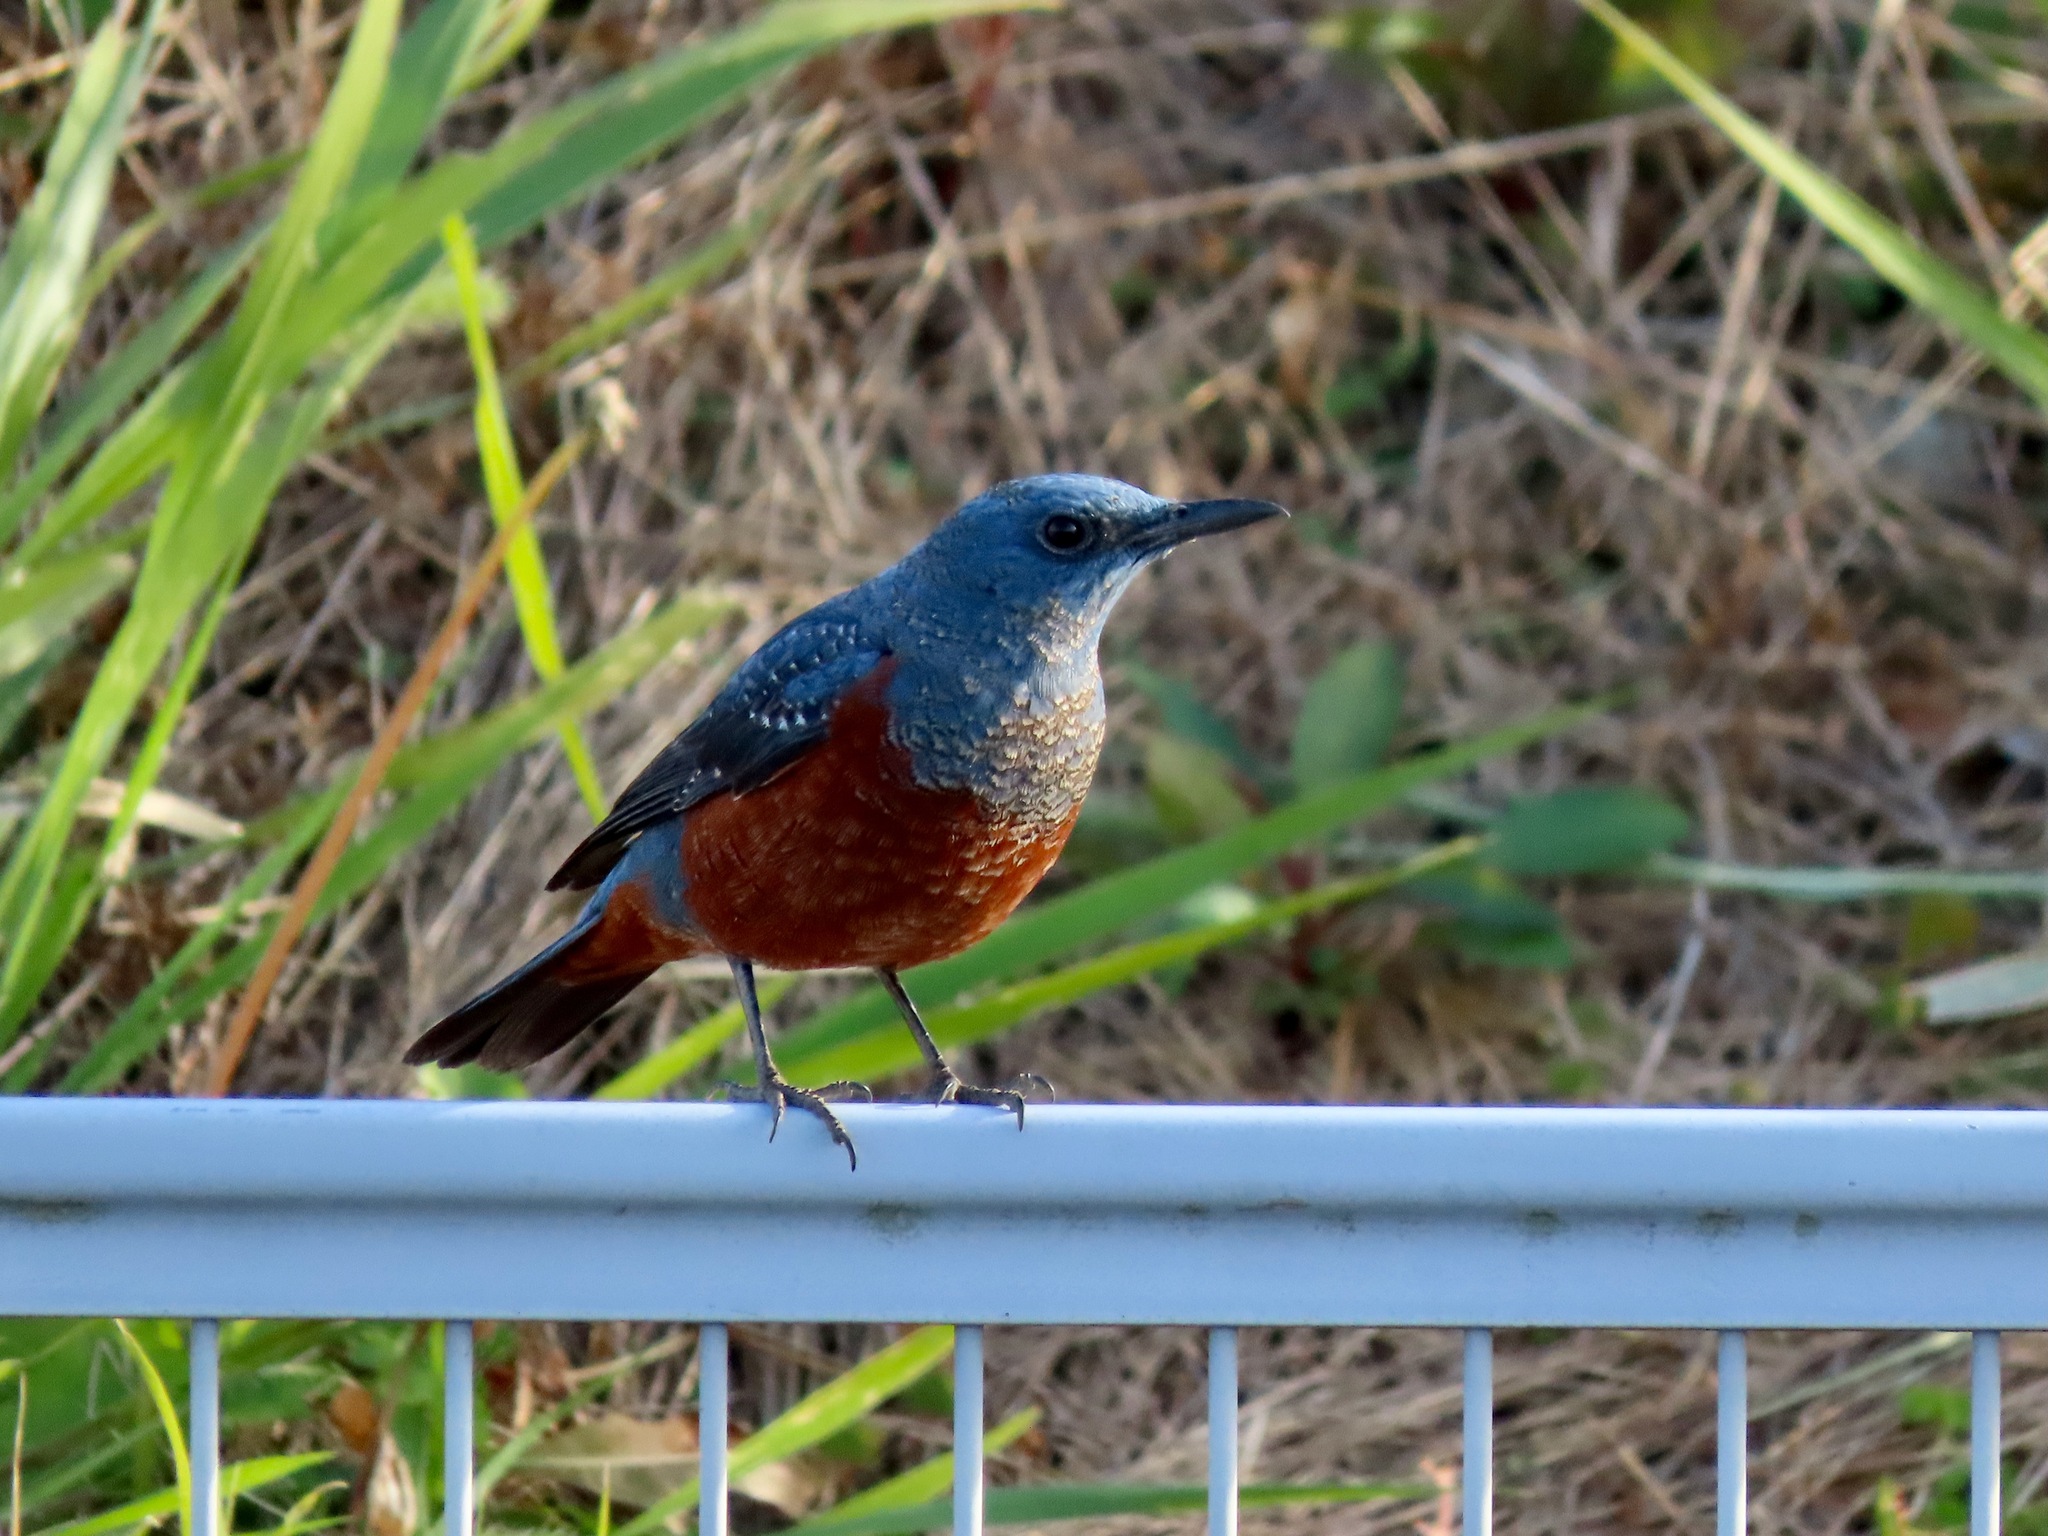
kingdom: Animalia
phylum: Chordata
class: Aves
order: Passeriformes
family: Muscicapidae
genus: Monticola
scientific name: Monticola solitarius
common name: Blue rock thrush
